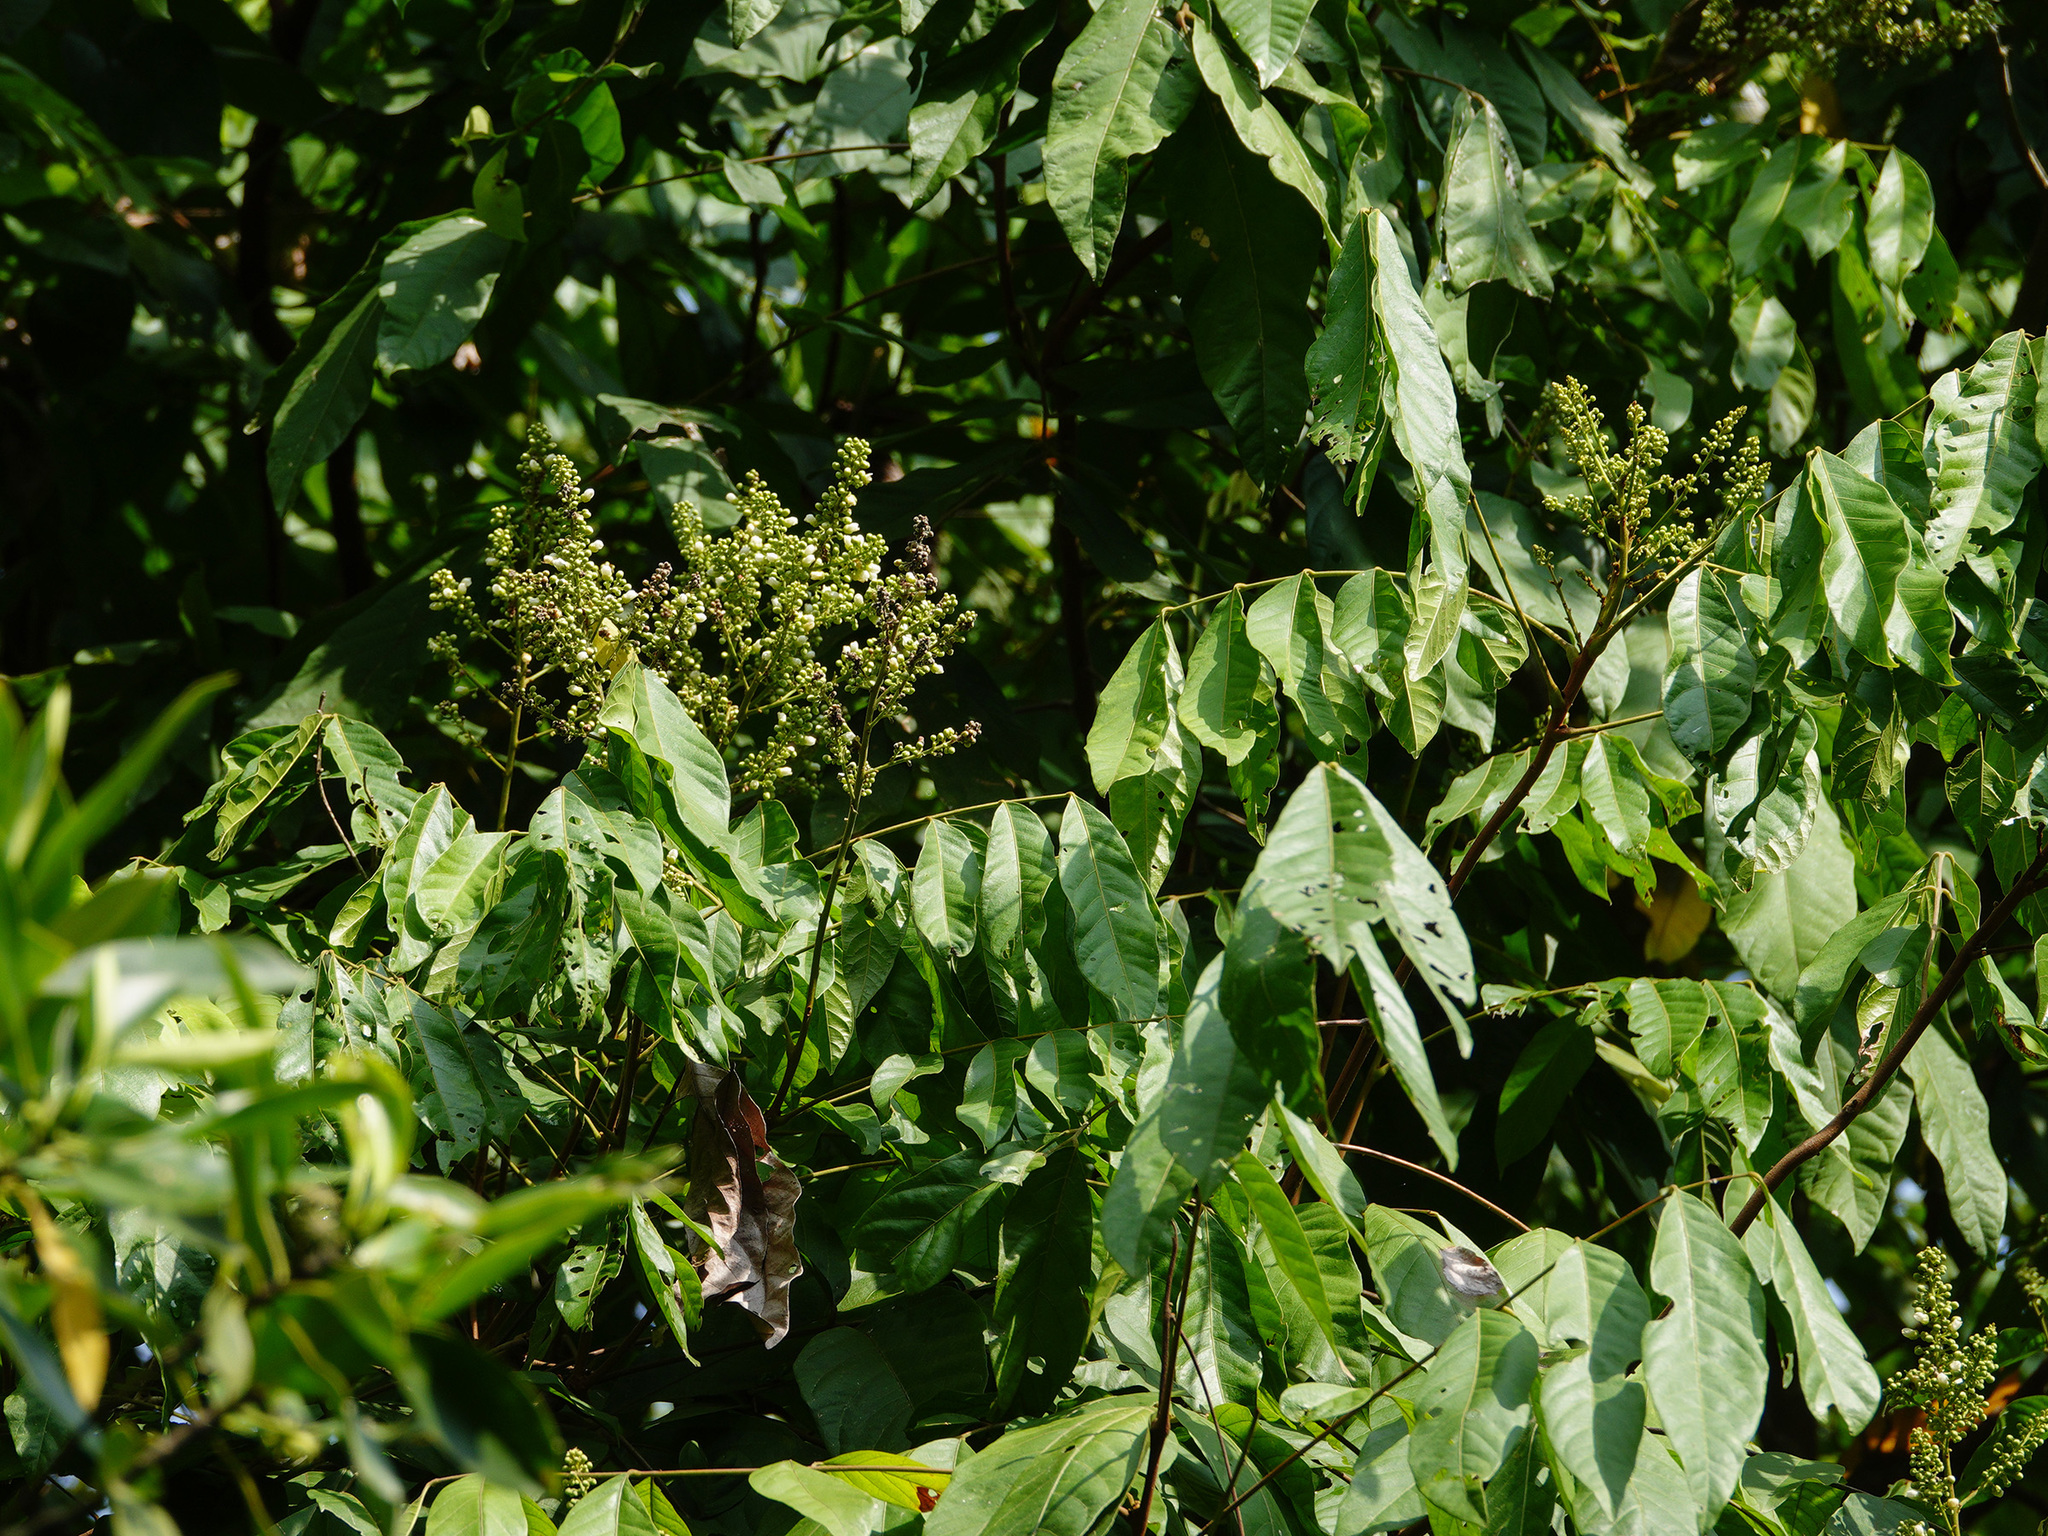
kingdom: Plantae
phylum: Tracheophyta
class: Magnoliopsida
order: Sapindales
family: Sapindaceae
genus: Lepisanthes
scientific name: Lepisanthes rubiginosa
